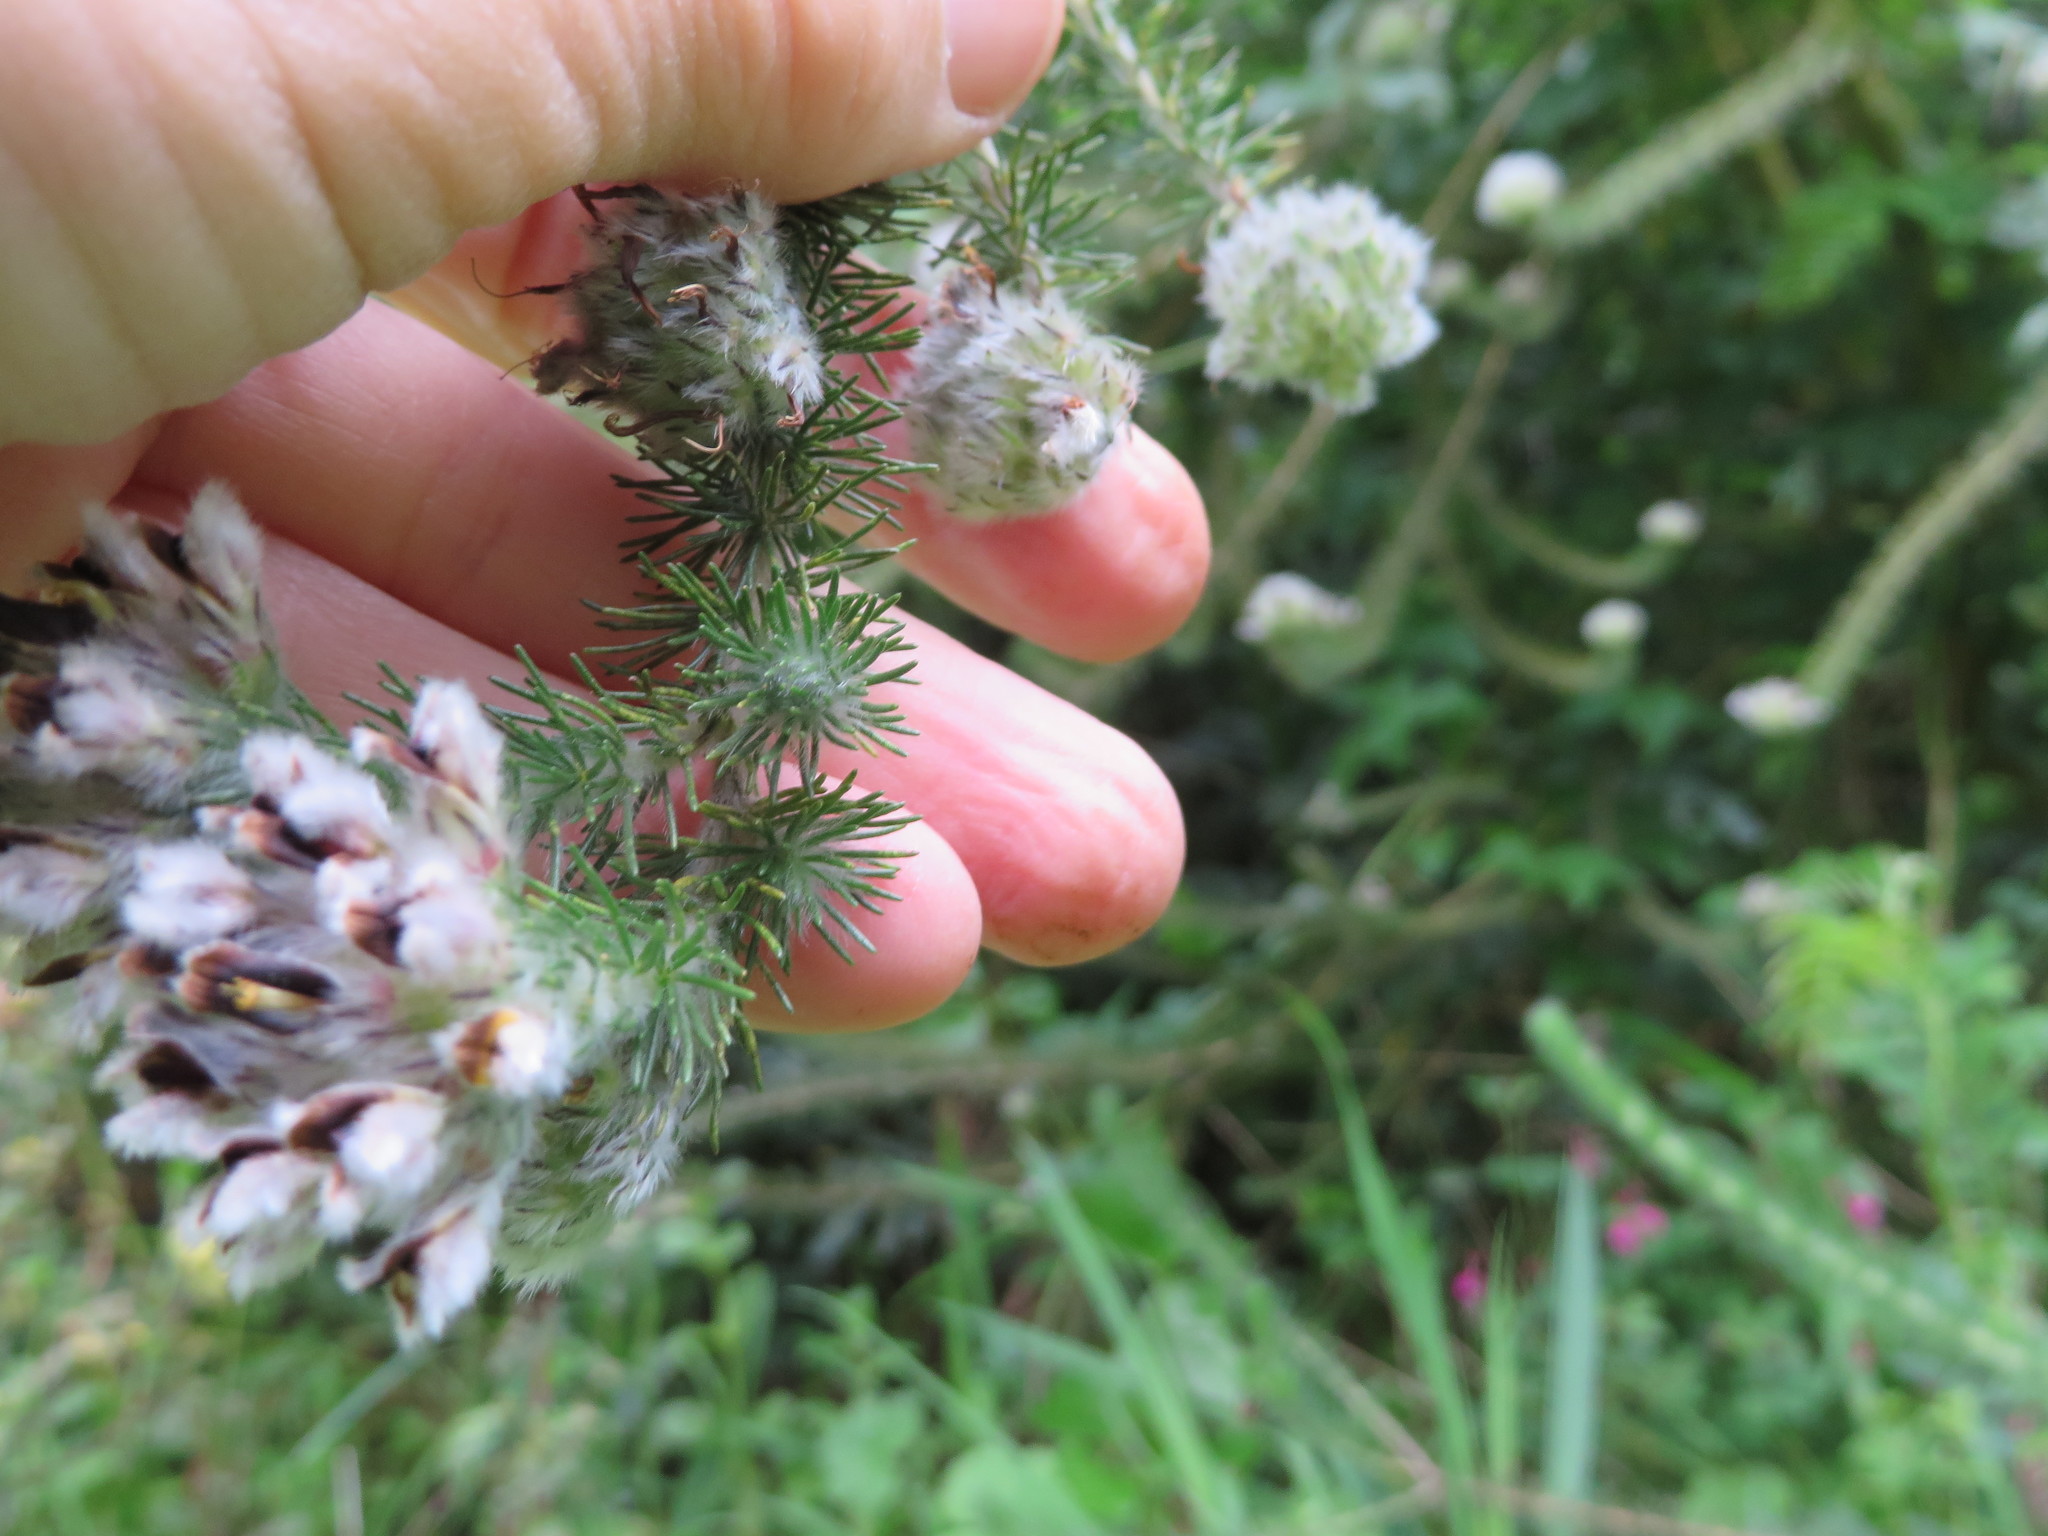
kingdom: Plantae
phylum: Tracheophyta
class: Magnoliopsida
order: Fabales
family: Fabaceae
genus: Aspalathus
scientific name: Aspalathus cephalotes
